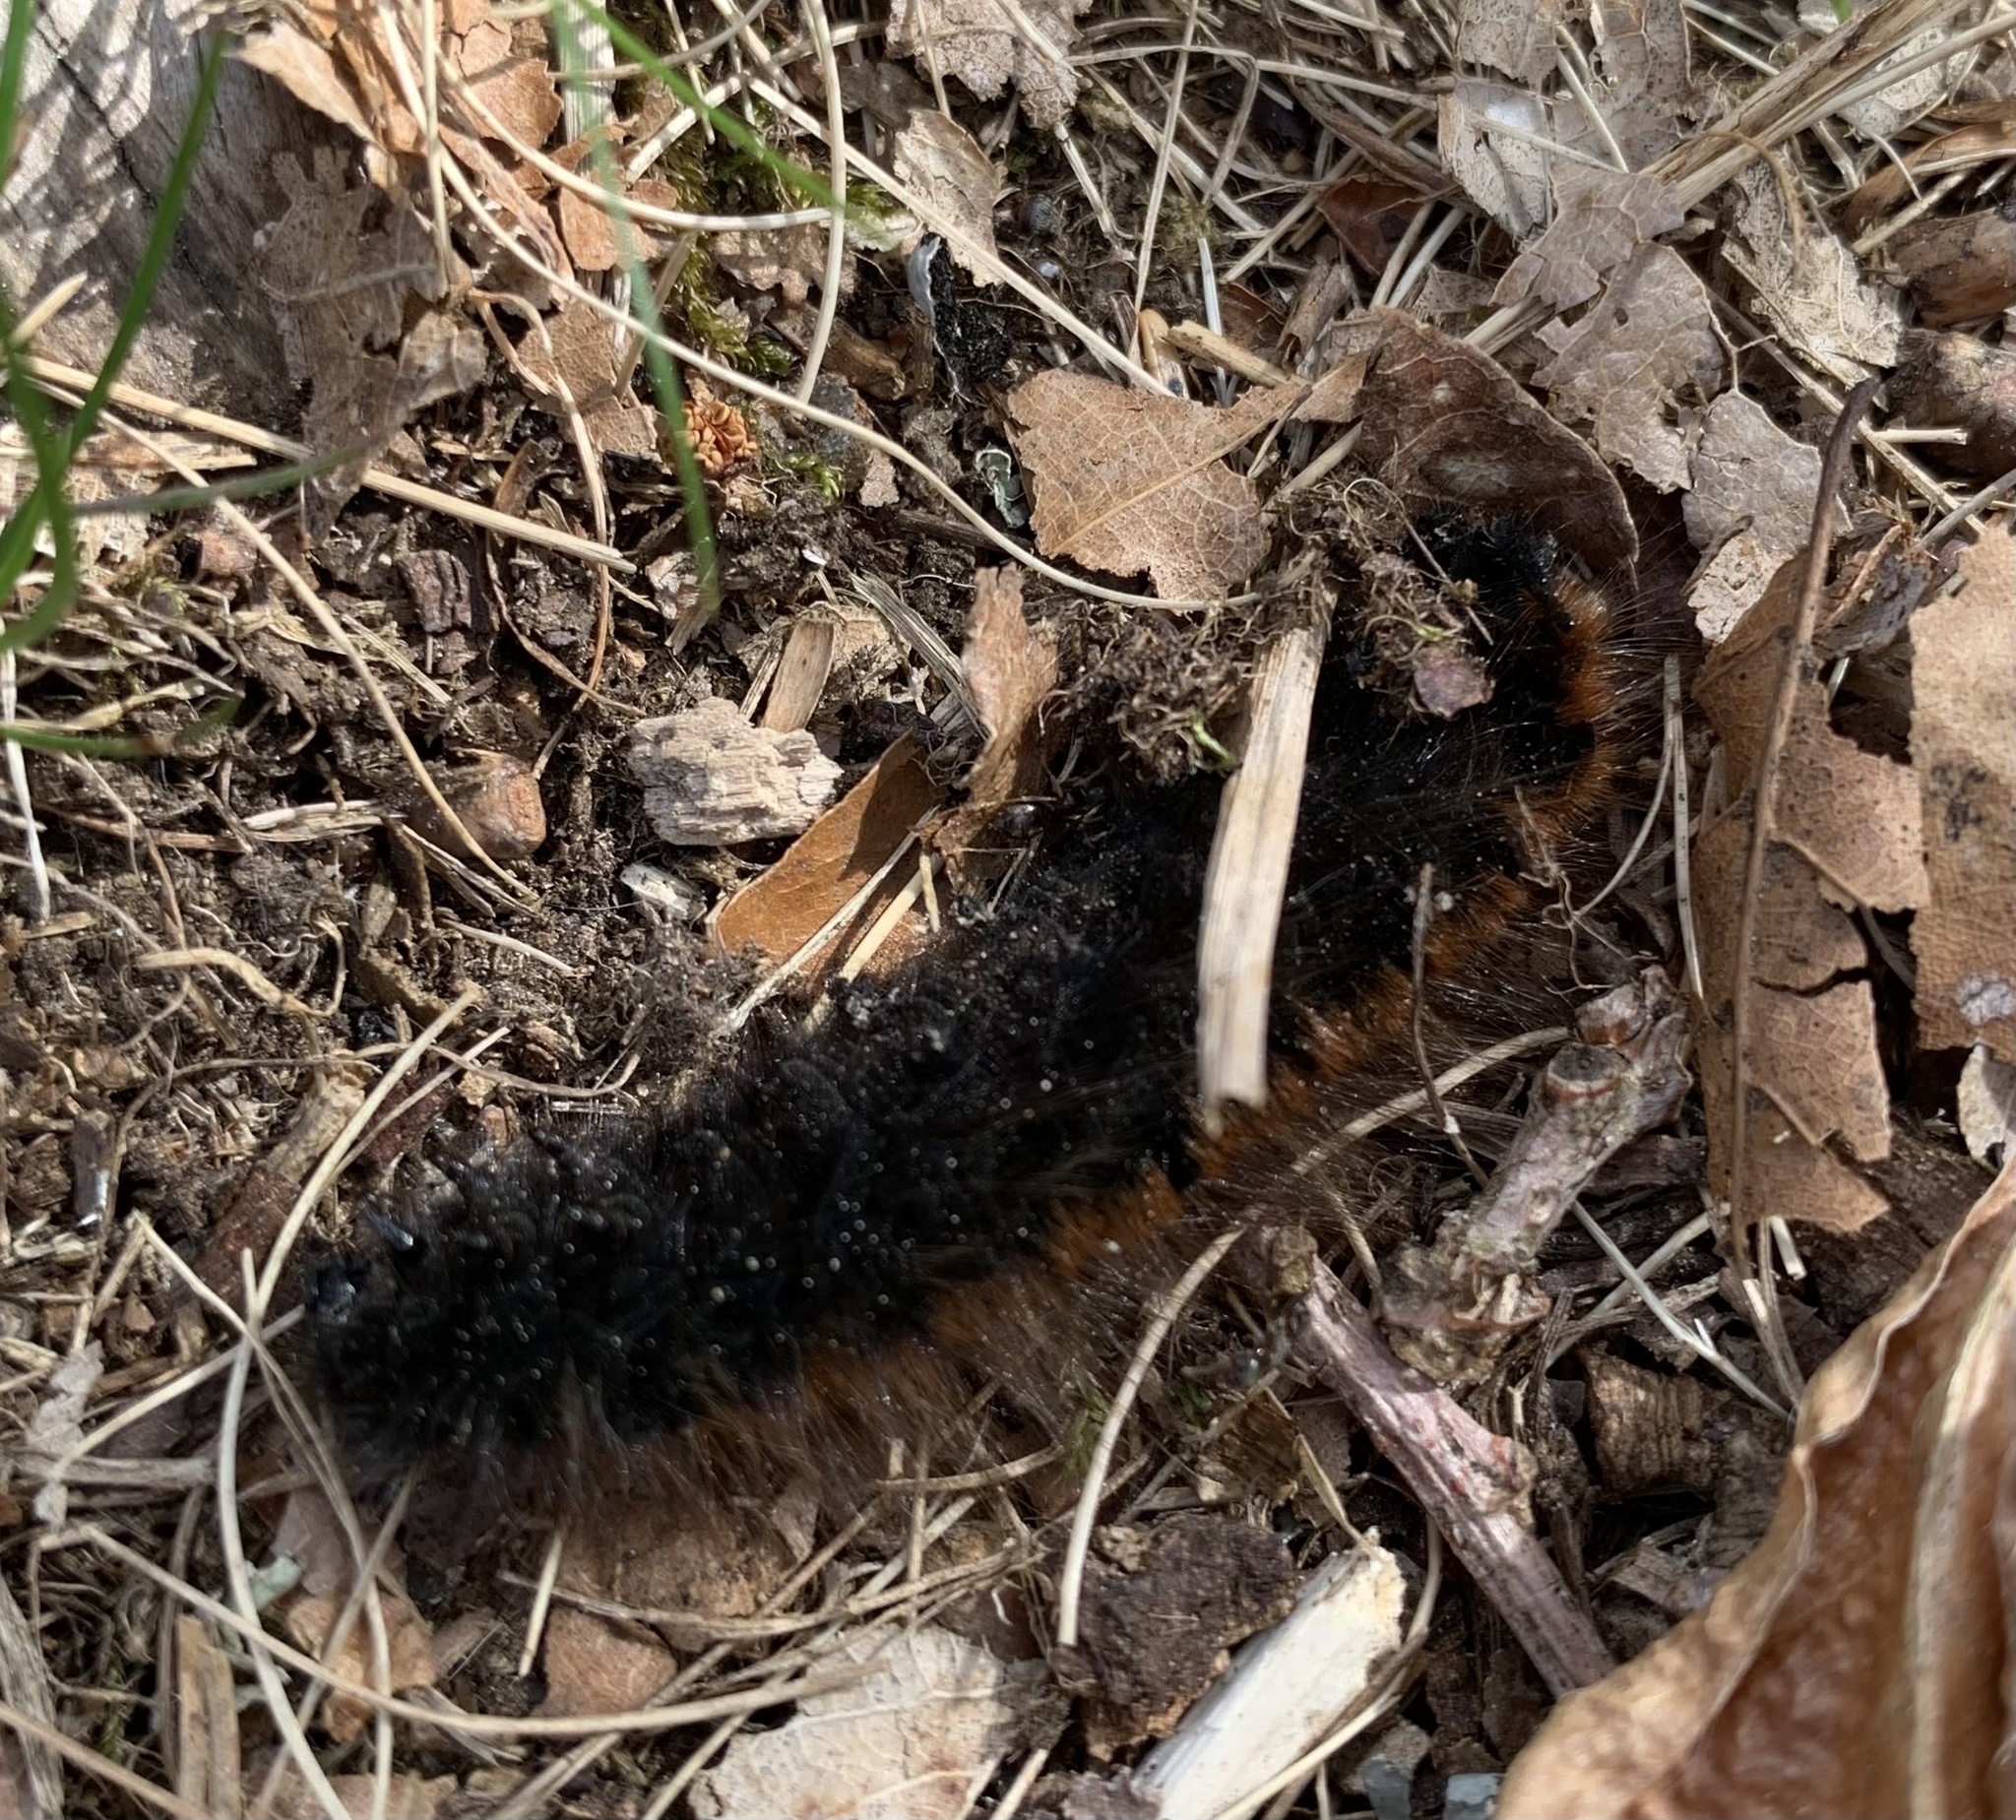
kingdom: Animalia
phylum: Arthropoda
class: Insecta
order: Lepidoptera
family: Lasiocampidae
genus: Macrothylacia
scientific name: Macrothylacia rubi
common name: Fox moth
